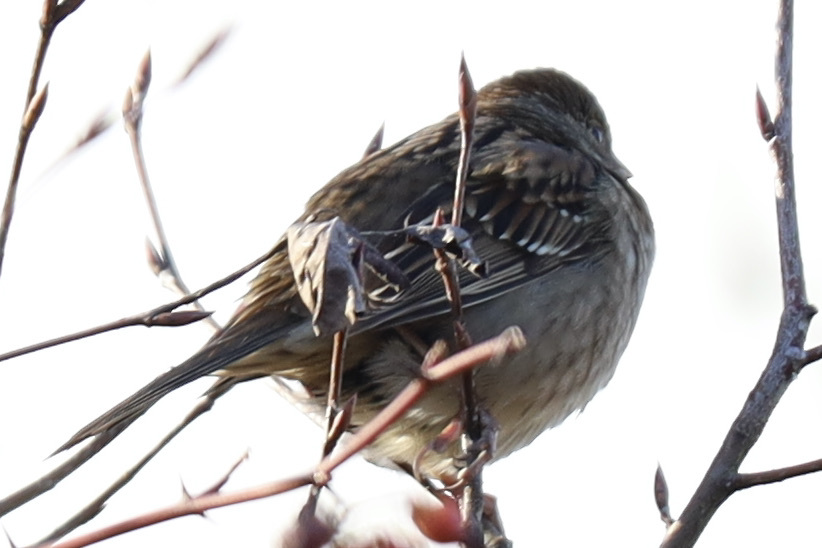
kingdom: Animalia
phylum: Chordata
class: Aves
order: Passeriformes
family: Passerellidae
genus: Zonotrichia
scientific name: Zonotrichia atricapilla
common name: Golden-crowned sparrow
